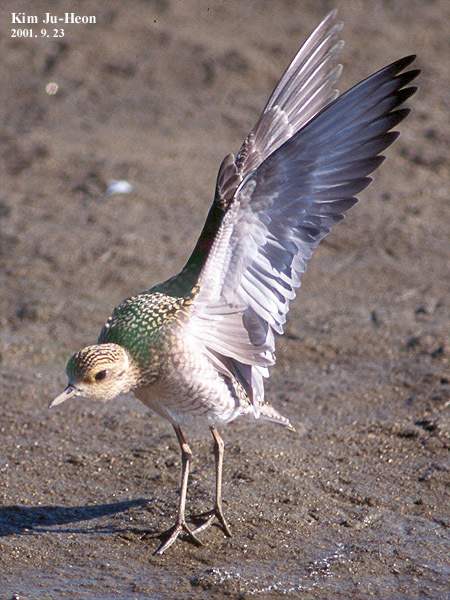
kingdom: Animalia
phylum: Chordata
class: Aves
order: Charadriiformes
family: Charadriidae
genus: Pluvialis
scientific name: Pluvialis fulva
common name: Pacific golden plover
